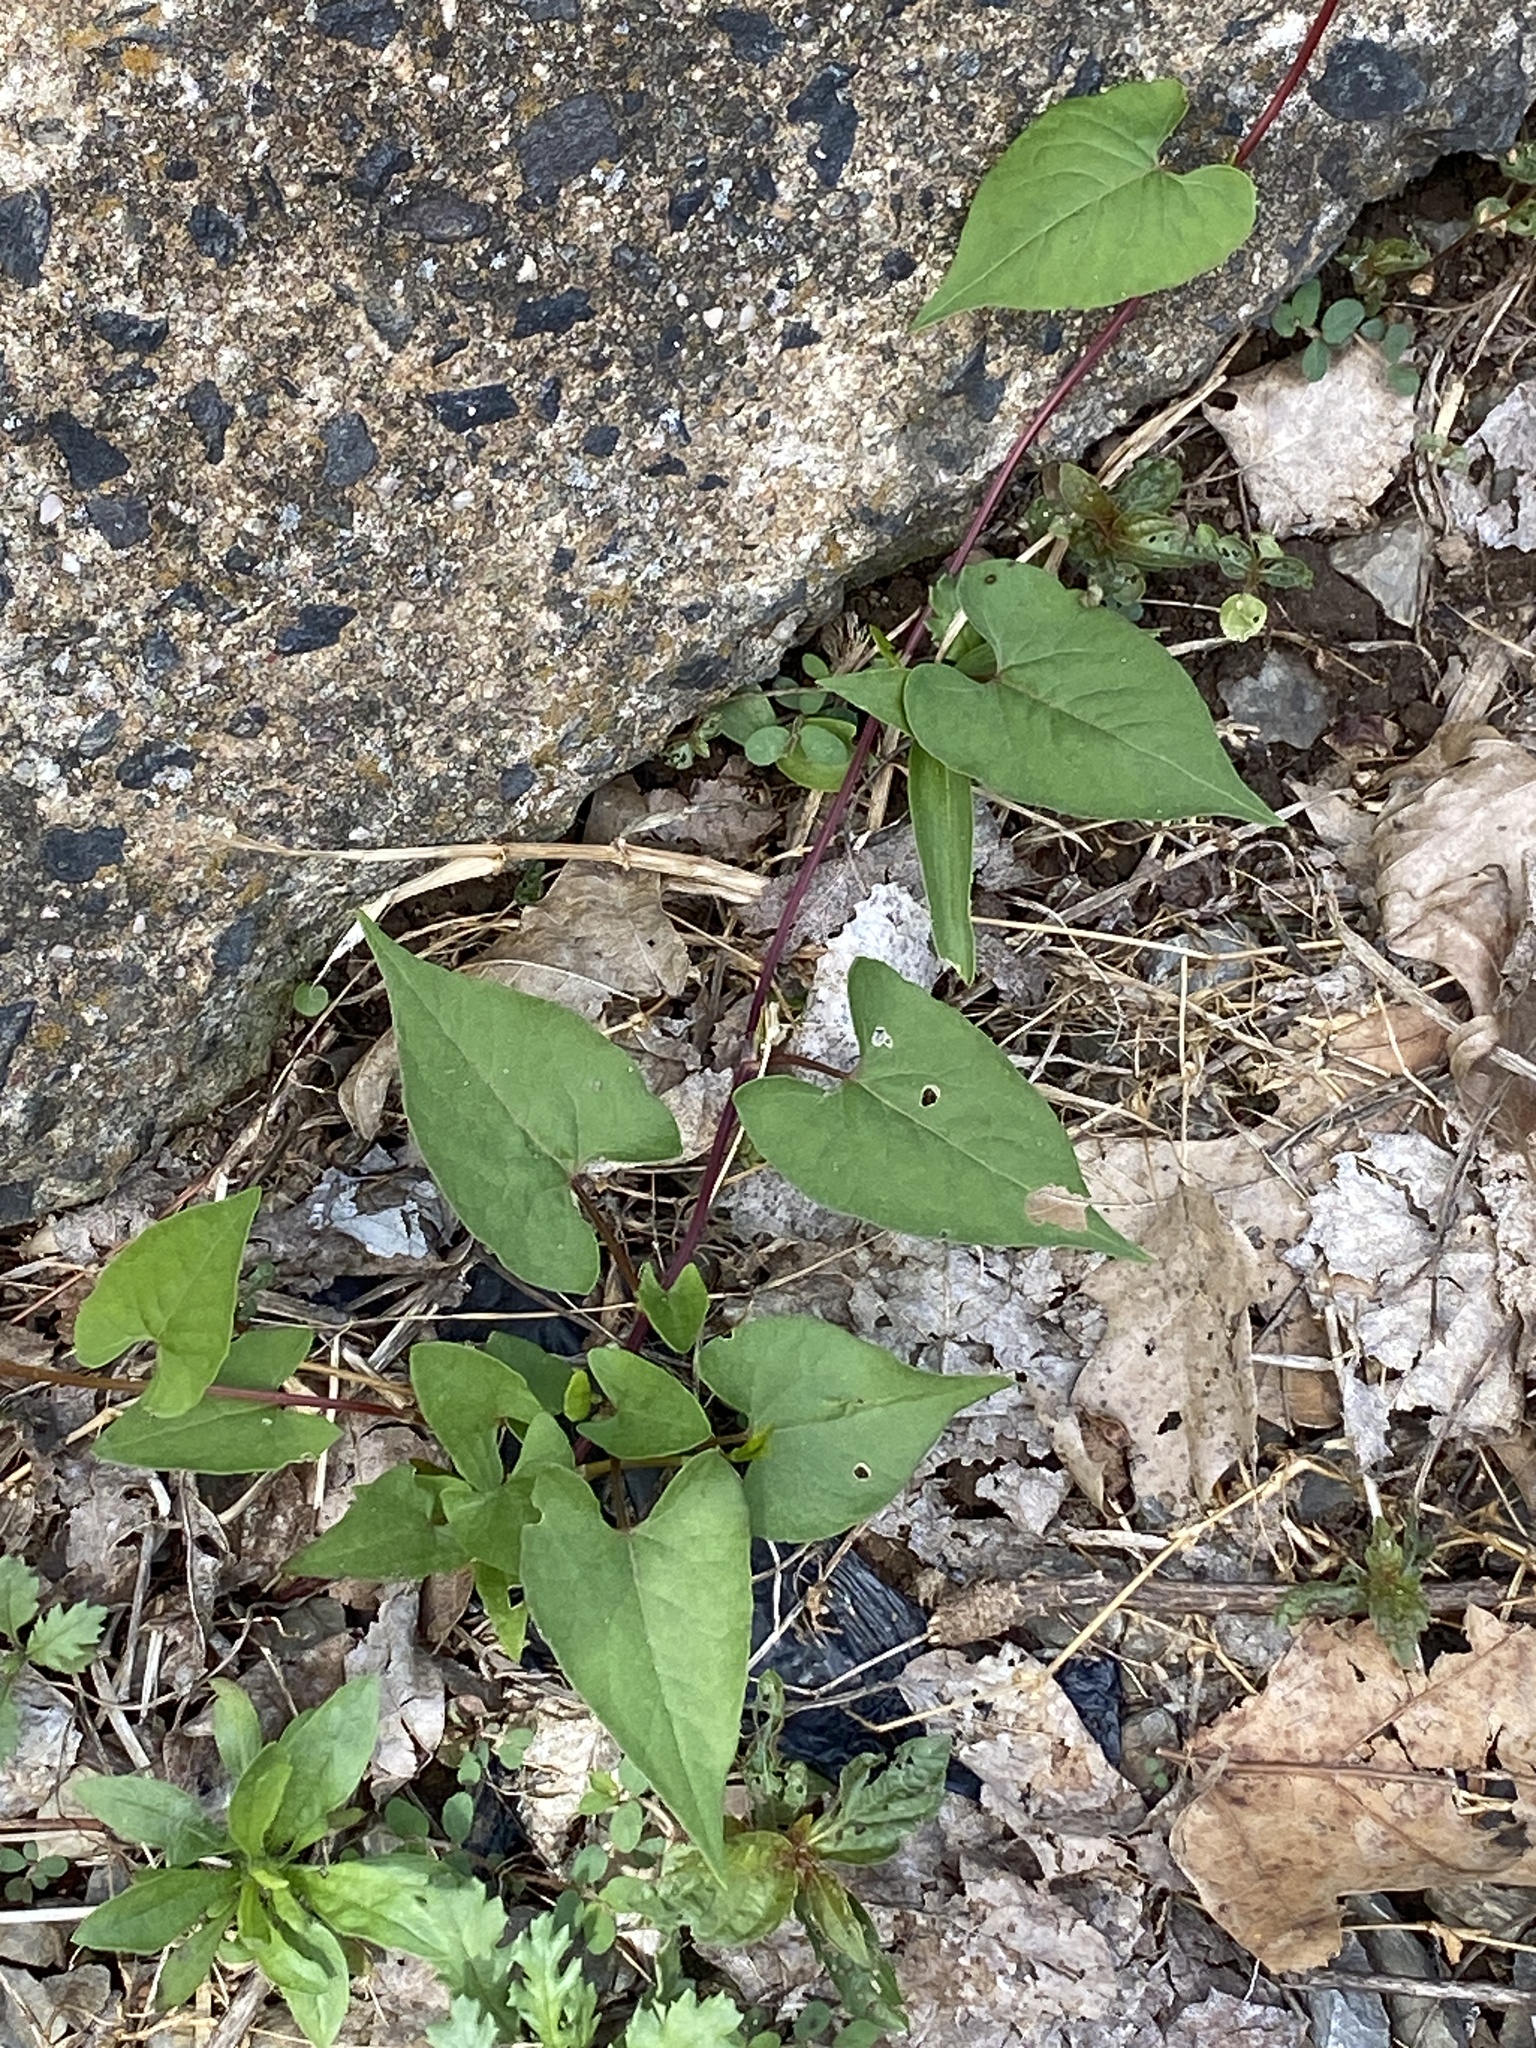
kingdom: Plantae
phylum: Tracheophyta
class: Magnoliopsida
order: Caryophyllales
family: Polygonaceae
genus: Fallopia
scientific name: Fallopia scandens
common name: Climbing false buckwheat
